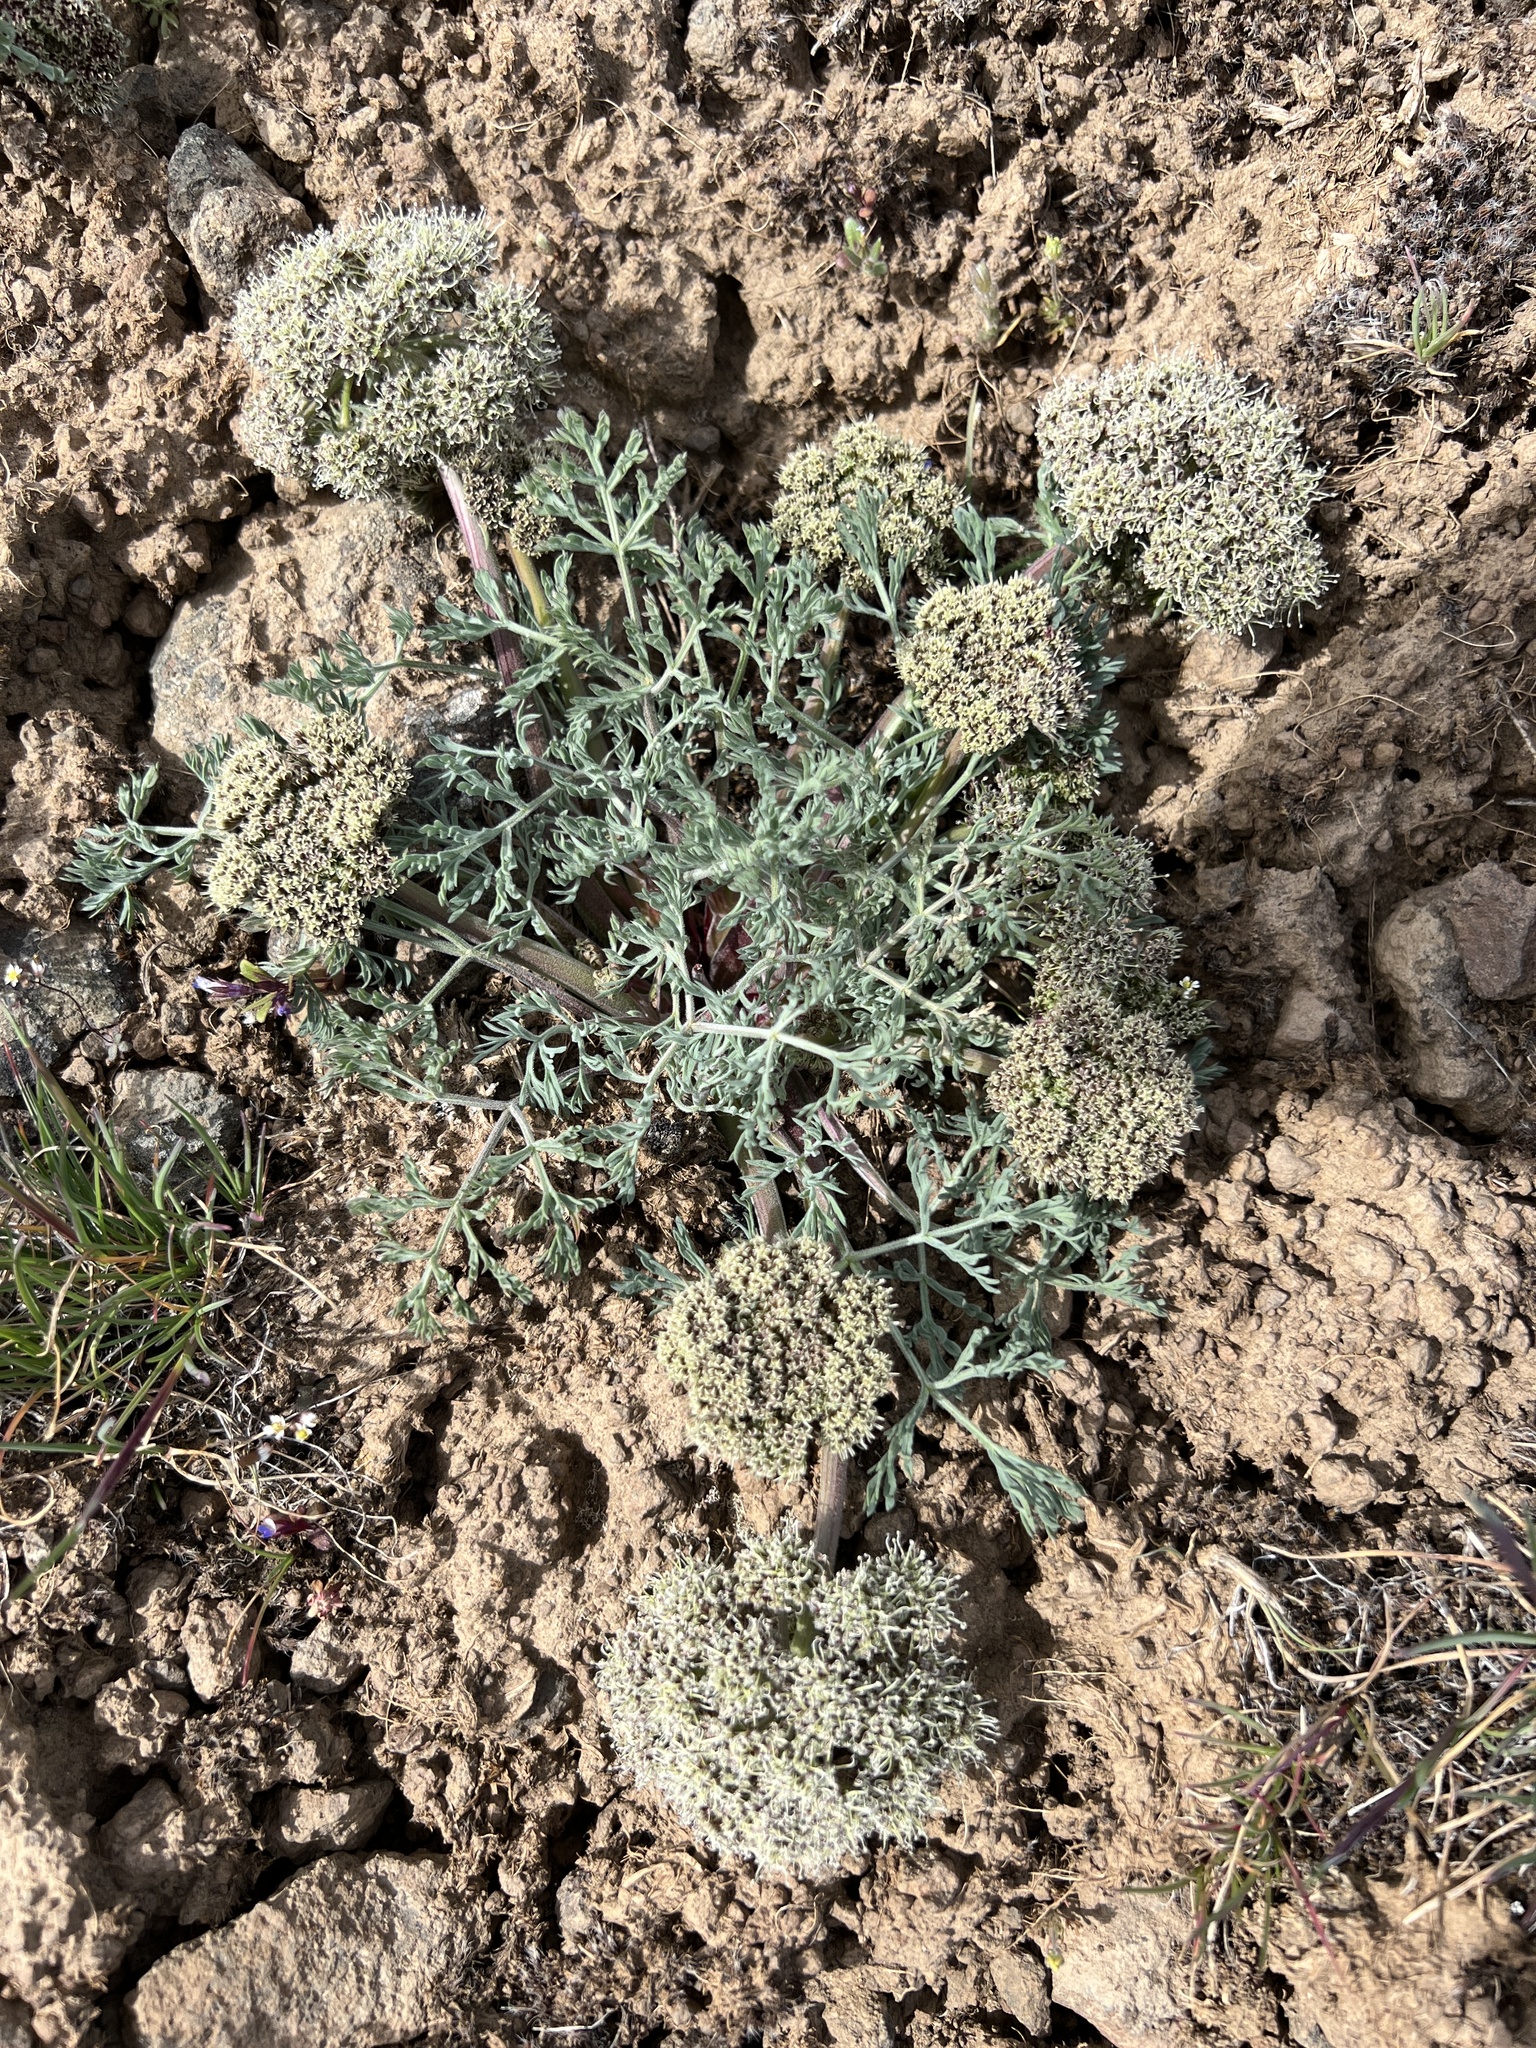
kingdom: Plantae
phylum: Tracheophyta
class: Magnoliopsida
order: Apiales
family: Apiaceae
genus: Lomatium
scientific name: Lomatium macrocarpum
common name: Big-seed biscuitroot
